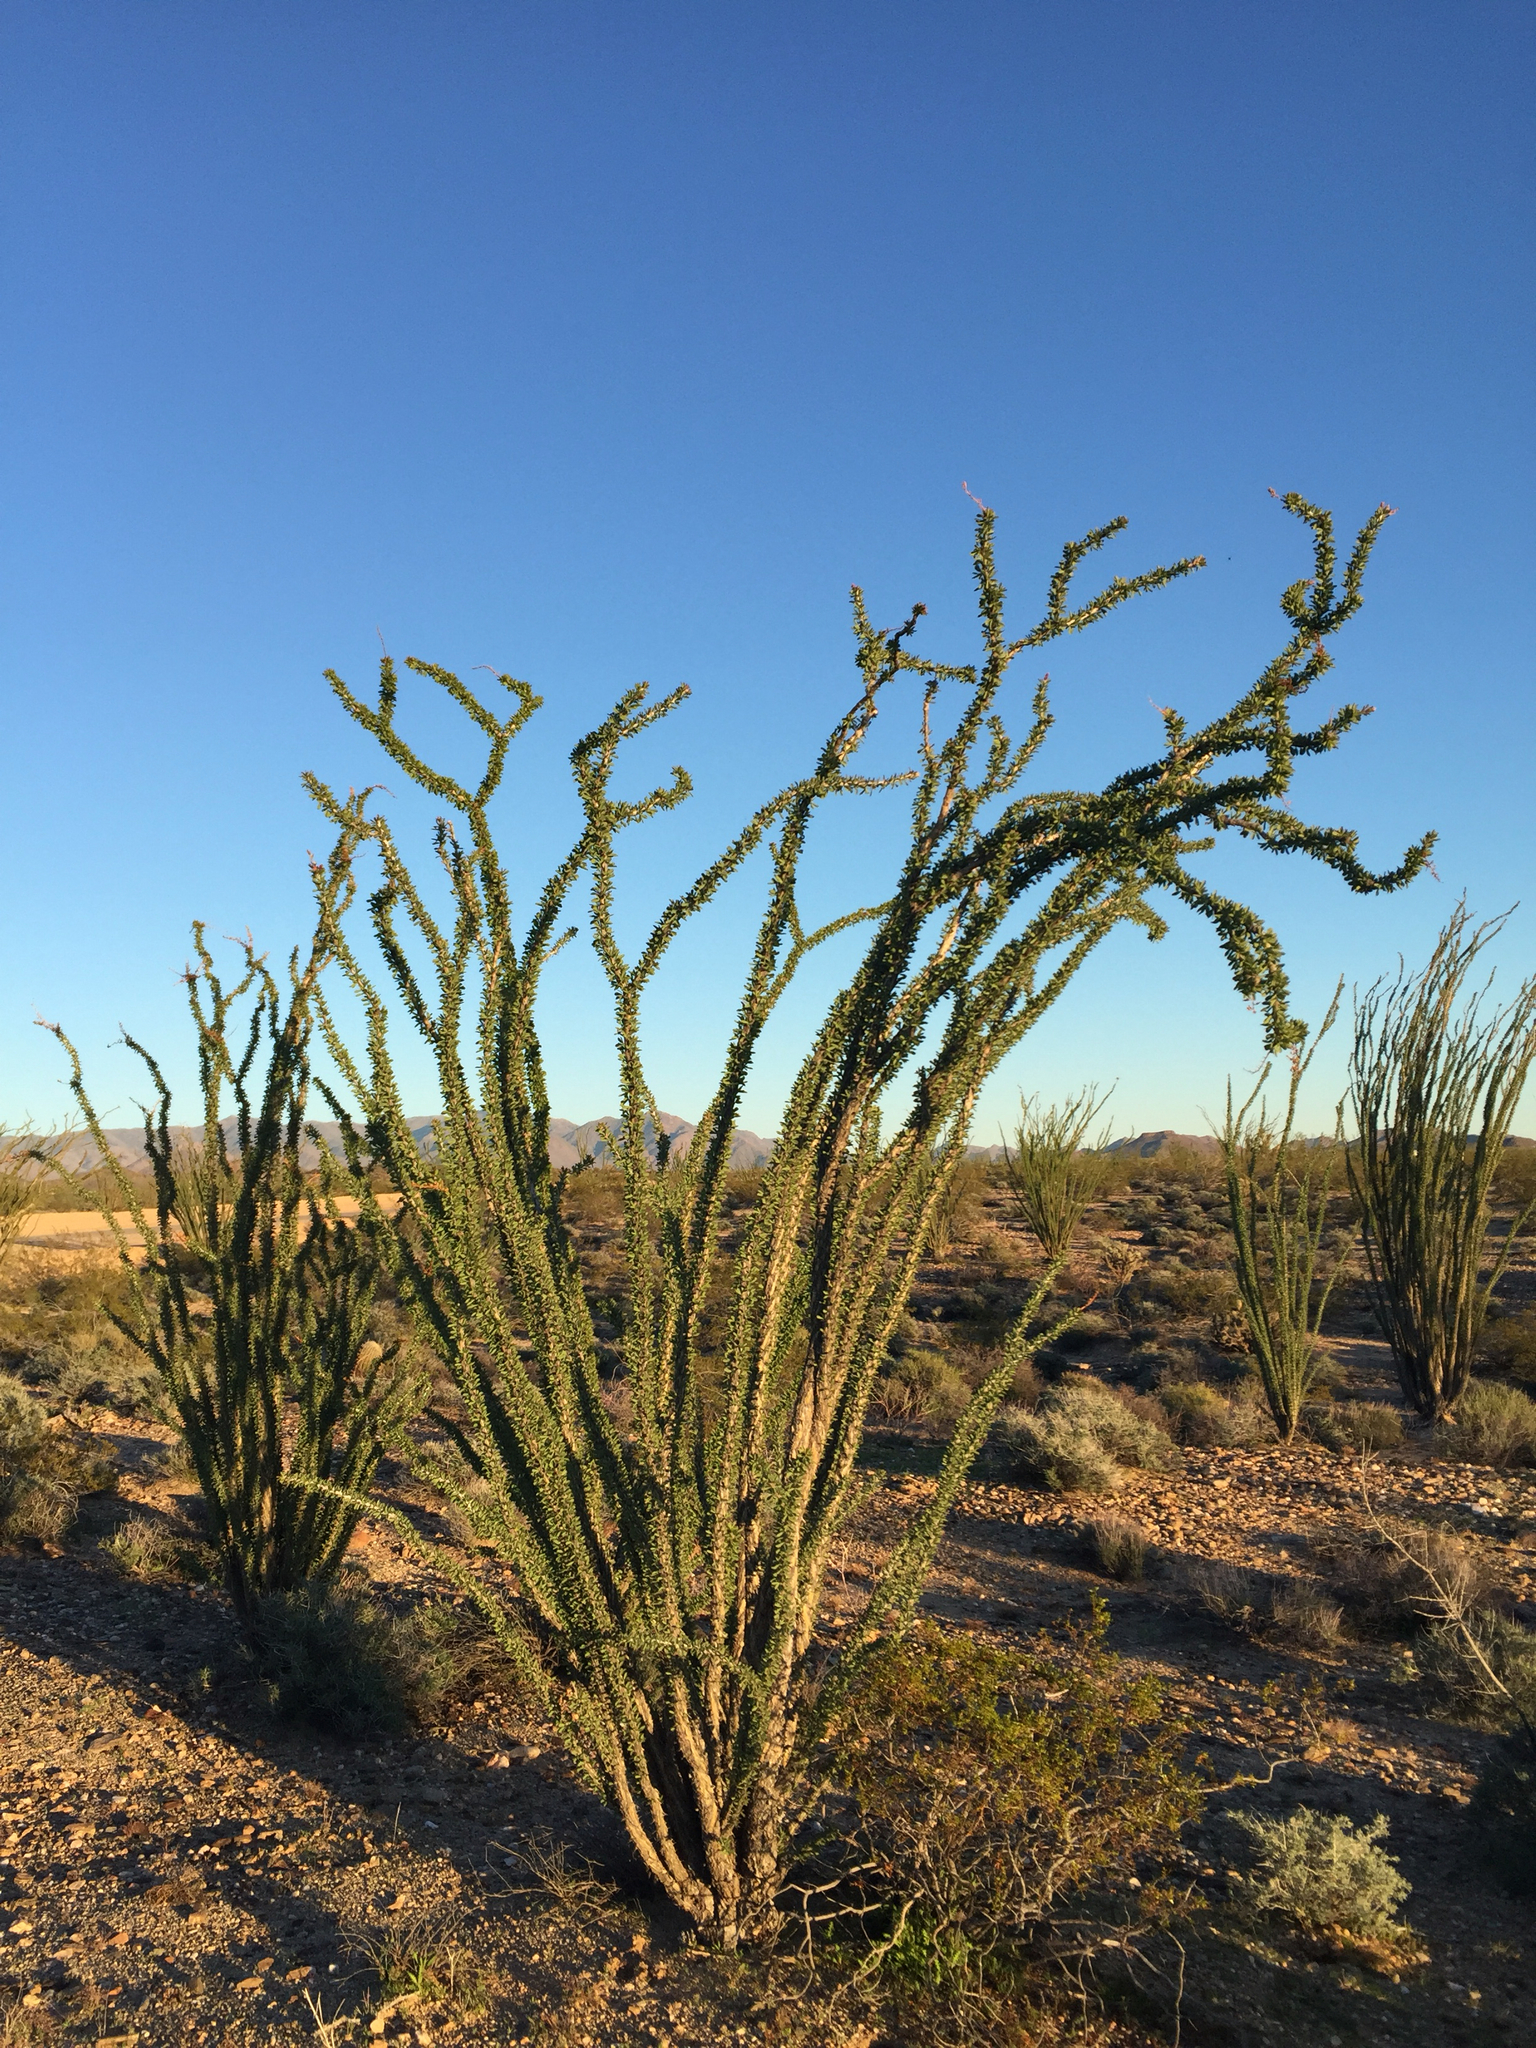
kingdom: Plantae
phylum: Tracheophyta
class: Magnoliopsida
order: Ericales
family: Fouquieriaceae
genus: Fouquieria
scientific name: Fouquieria splendens
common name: Vine-cactus
